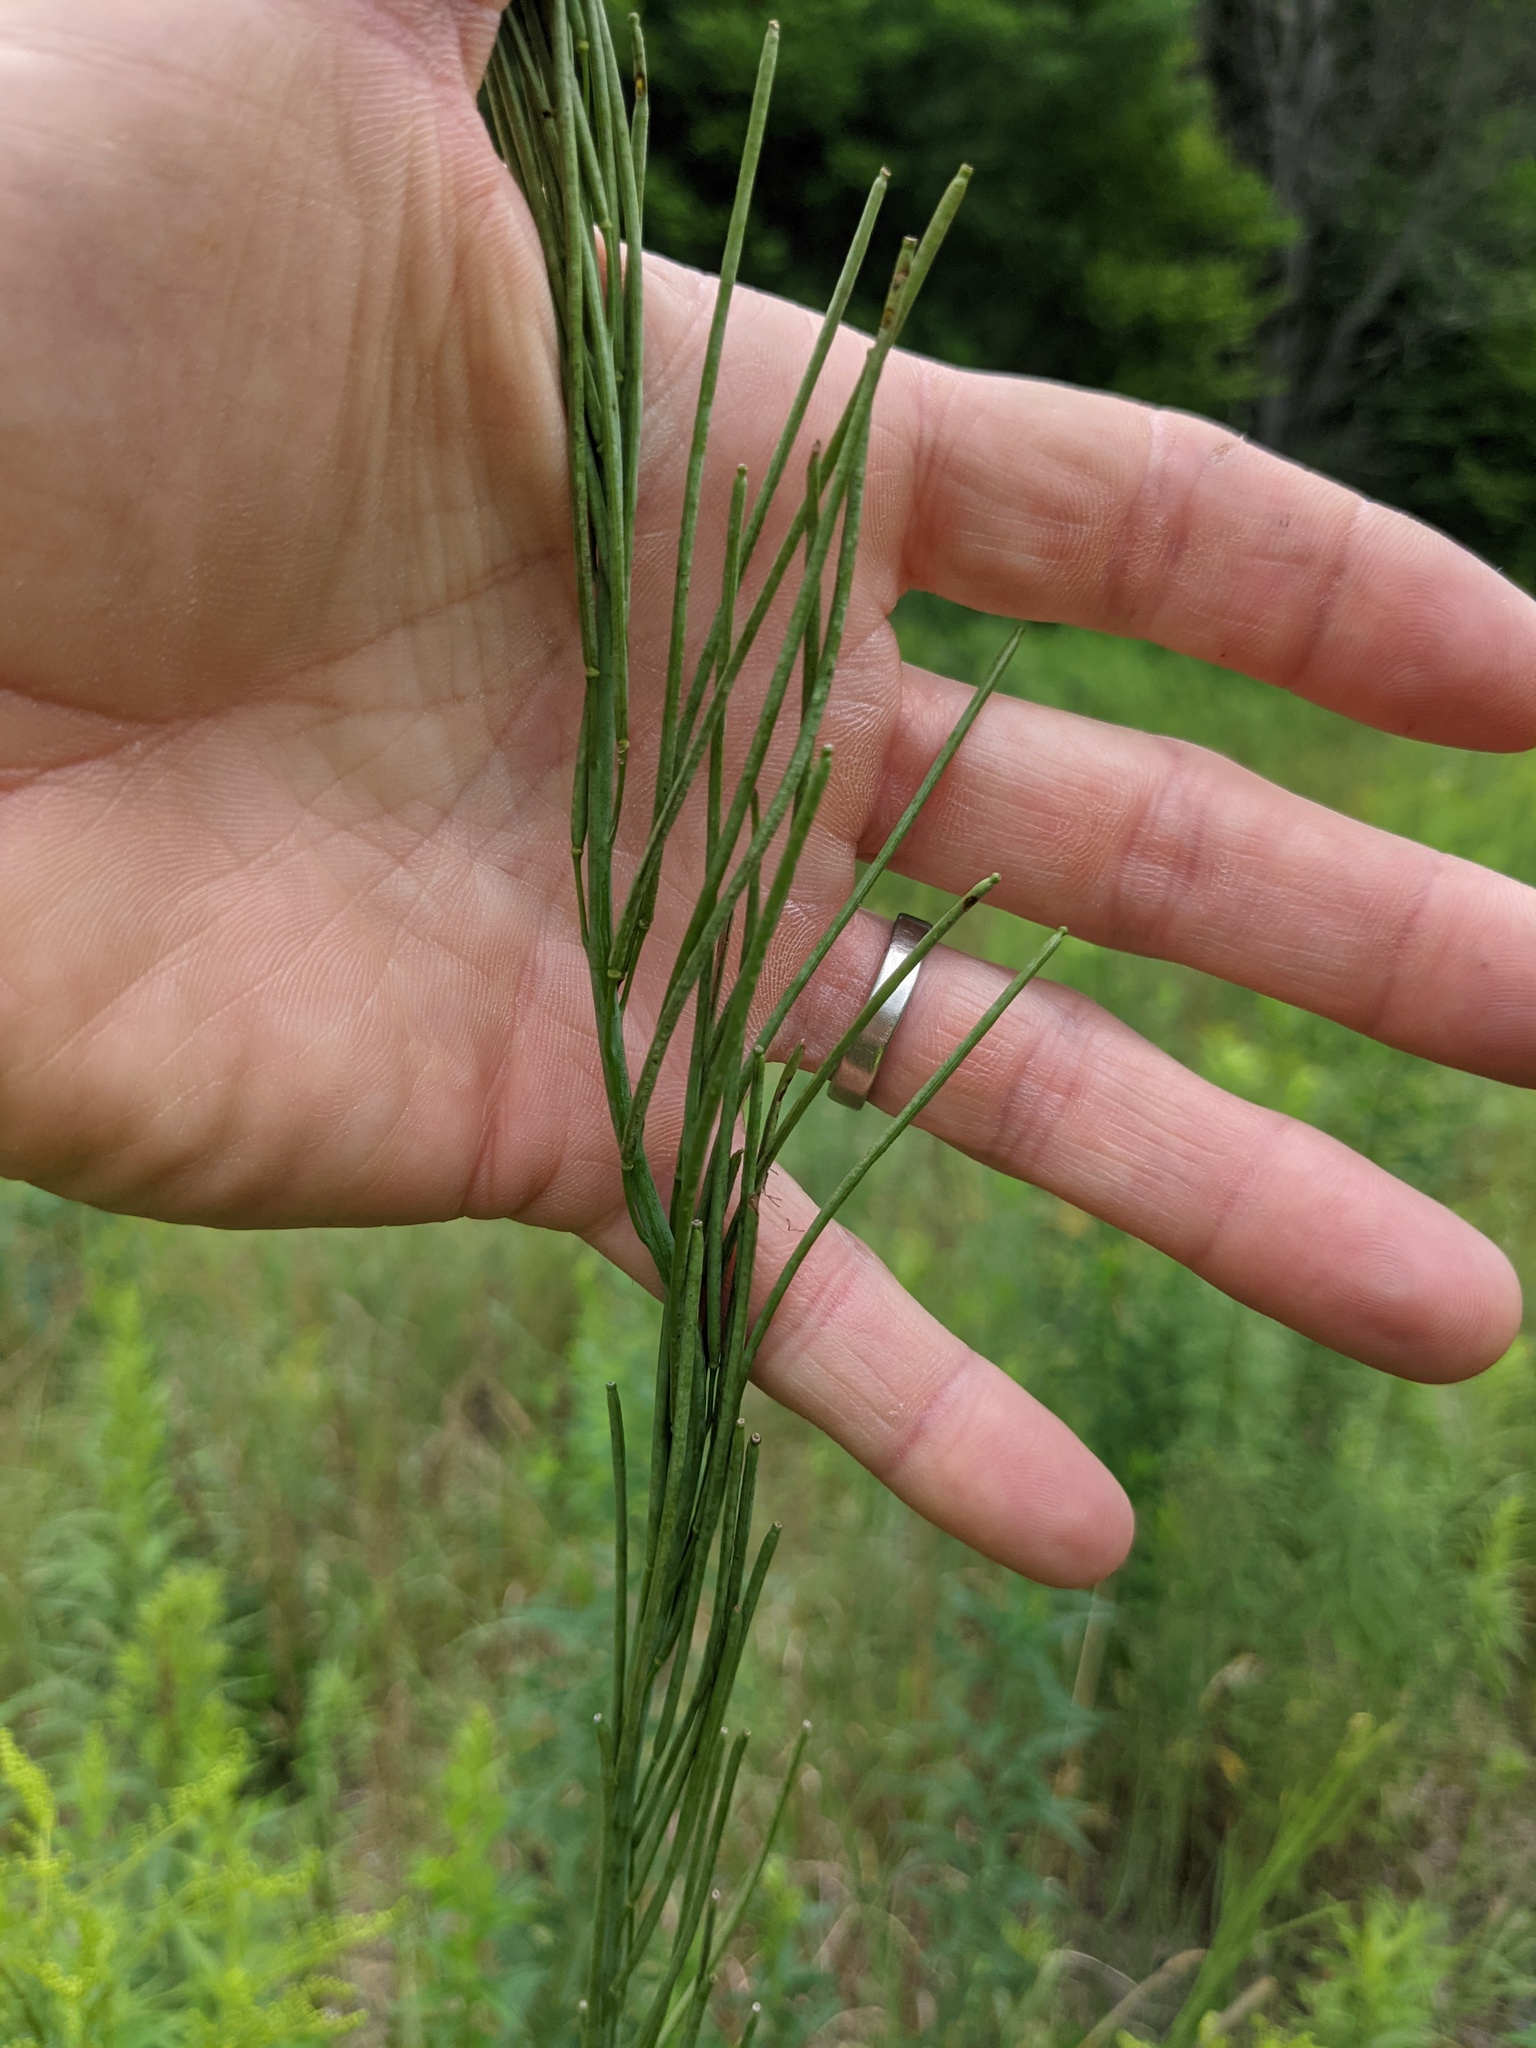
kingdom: Plantae
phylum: Tracheophyta
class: Magnoliopsida
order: Brassicales
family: Brassicaceae
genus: Turritis
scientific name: Turritis glabra
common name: Tower rockcress
